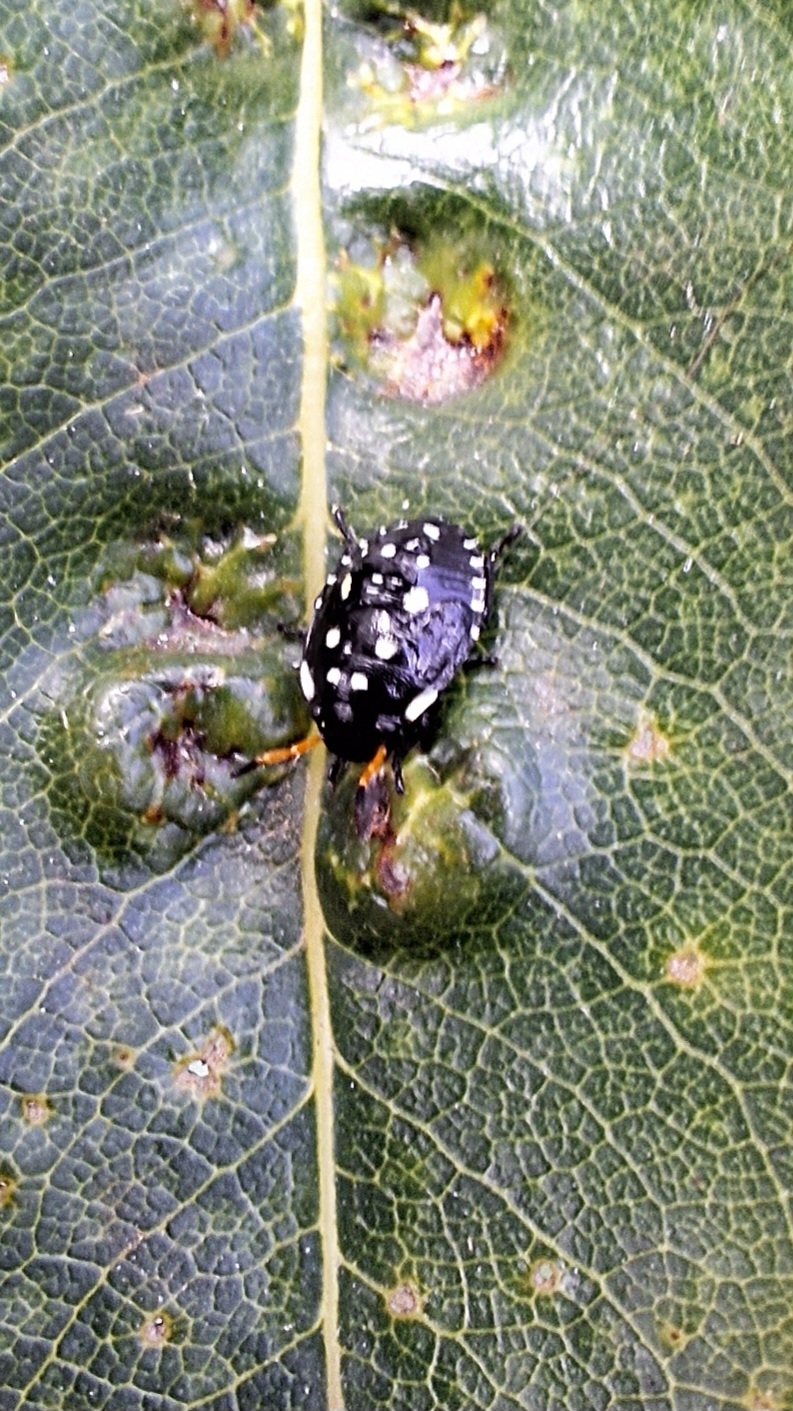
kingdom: Animalia
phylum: Arthropoda
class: Insecta
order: Hemiptera
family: Pentatomidae
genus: Pseudapines
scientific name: Pseudapines
